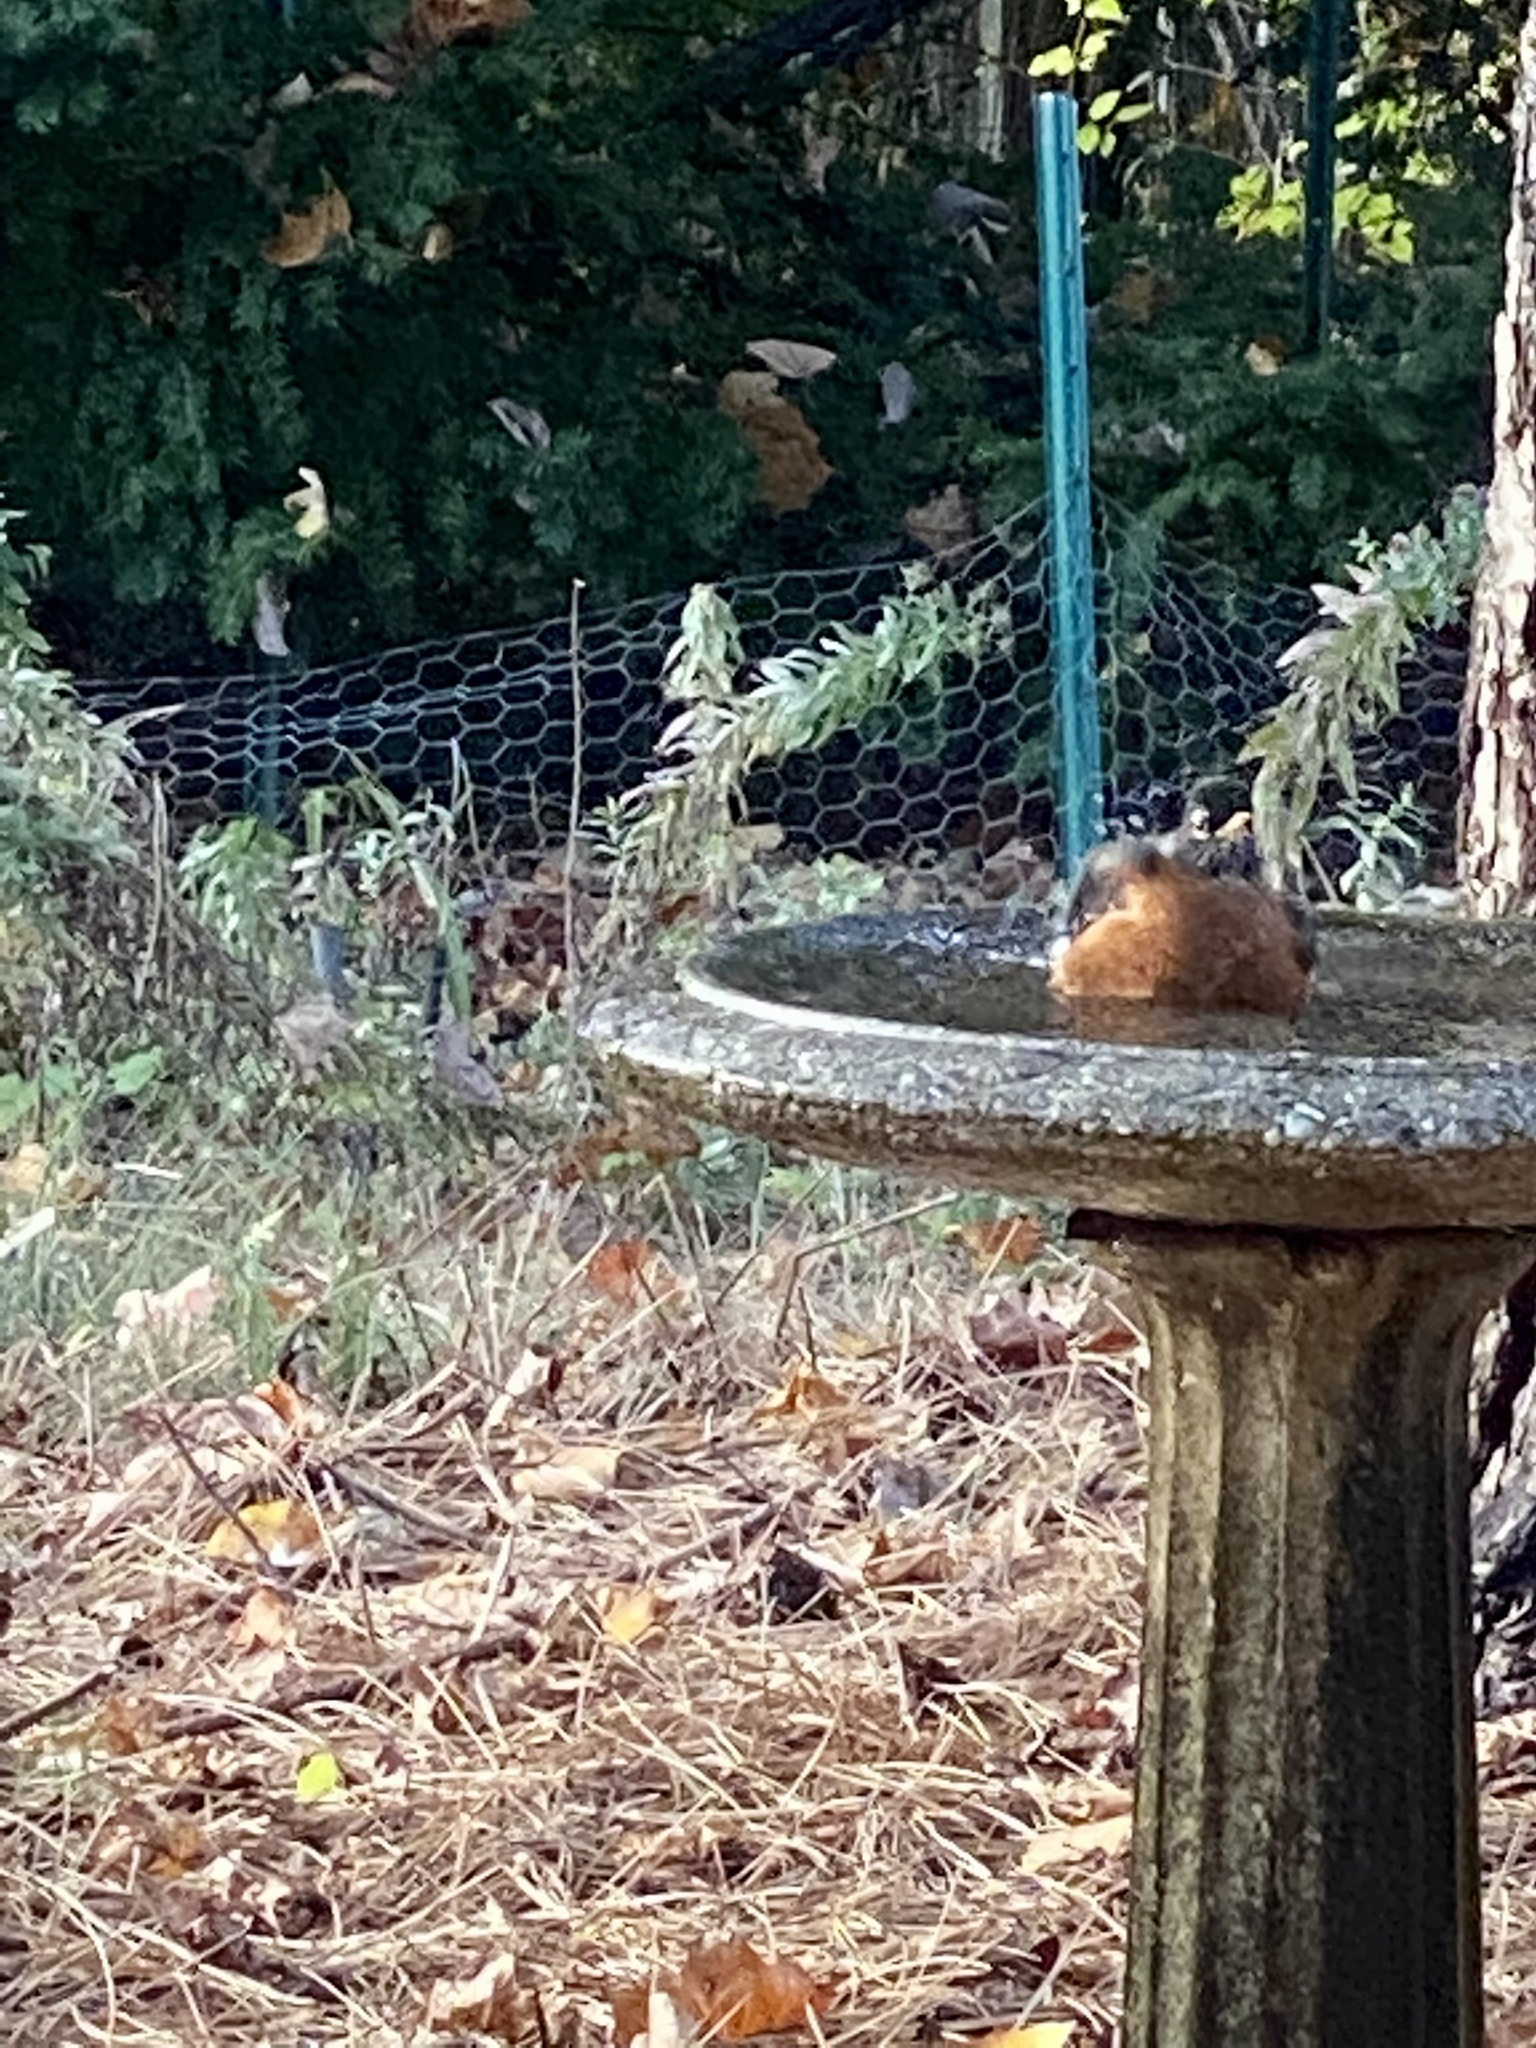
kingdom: Animalia
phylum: Chordata
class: Aves
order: Passeriformes
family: Turdidae
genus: Turdus
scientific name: Turdus migratorius
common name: American robin
